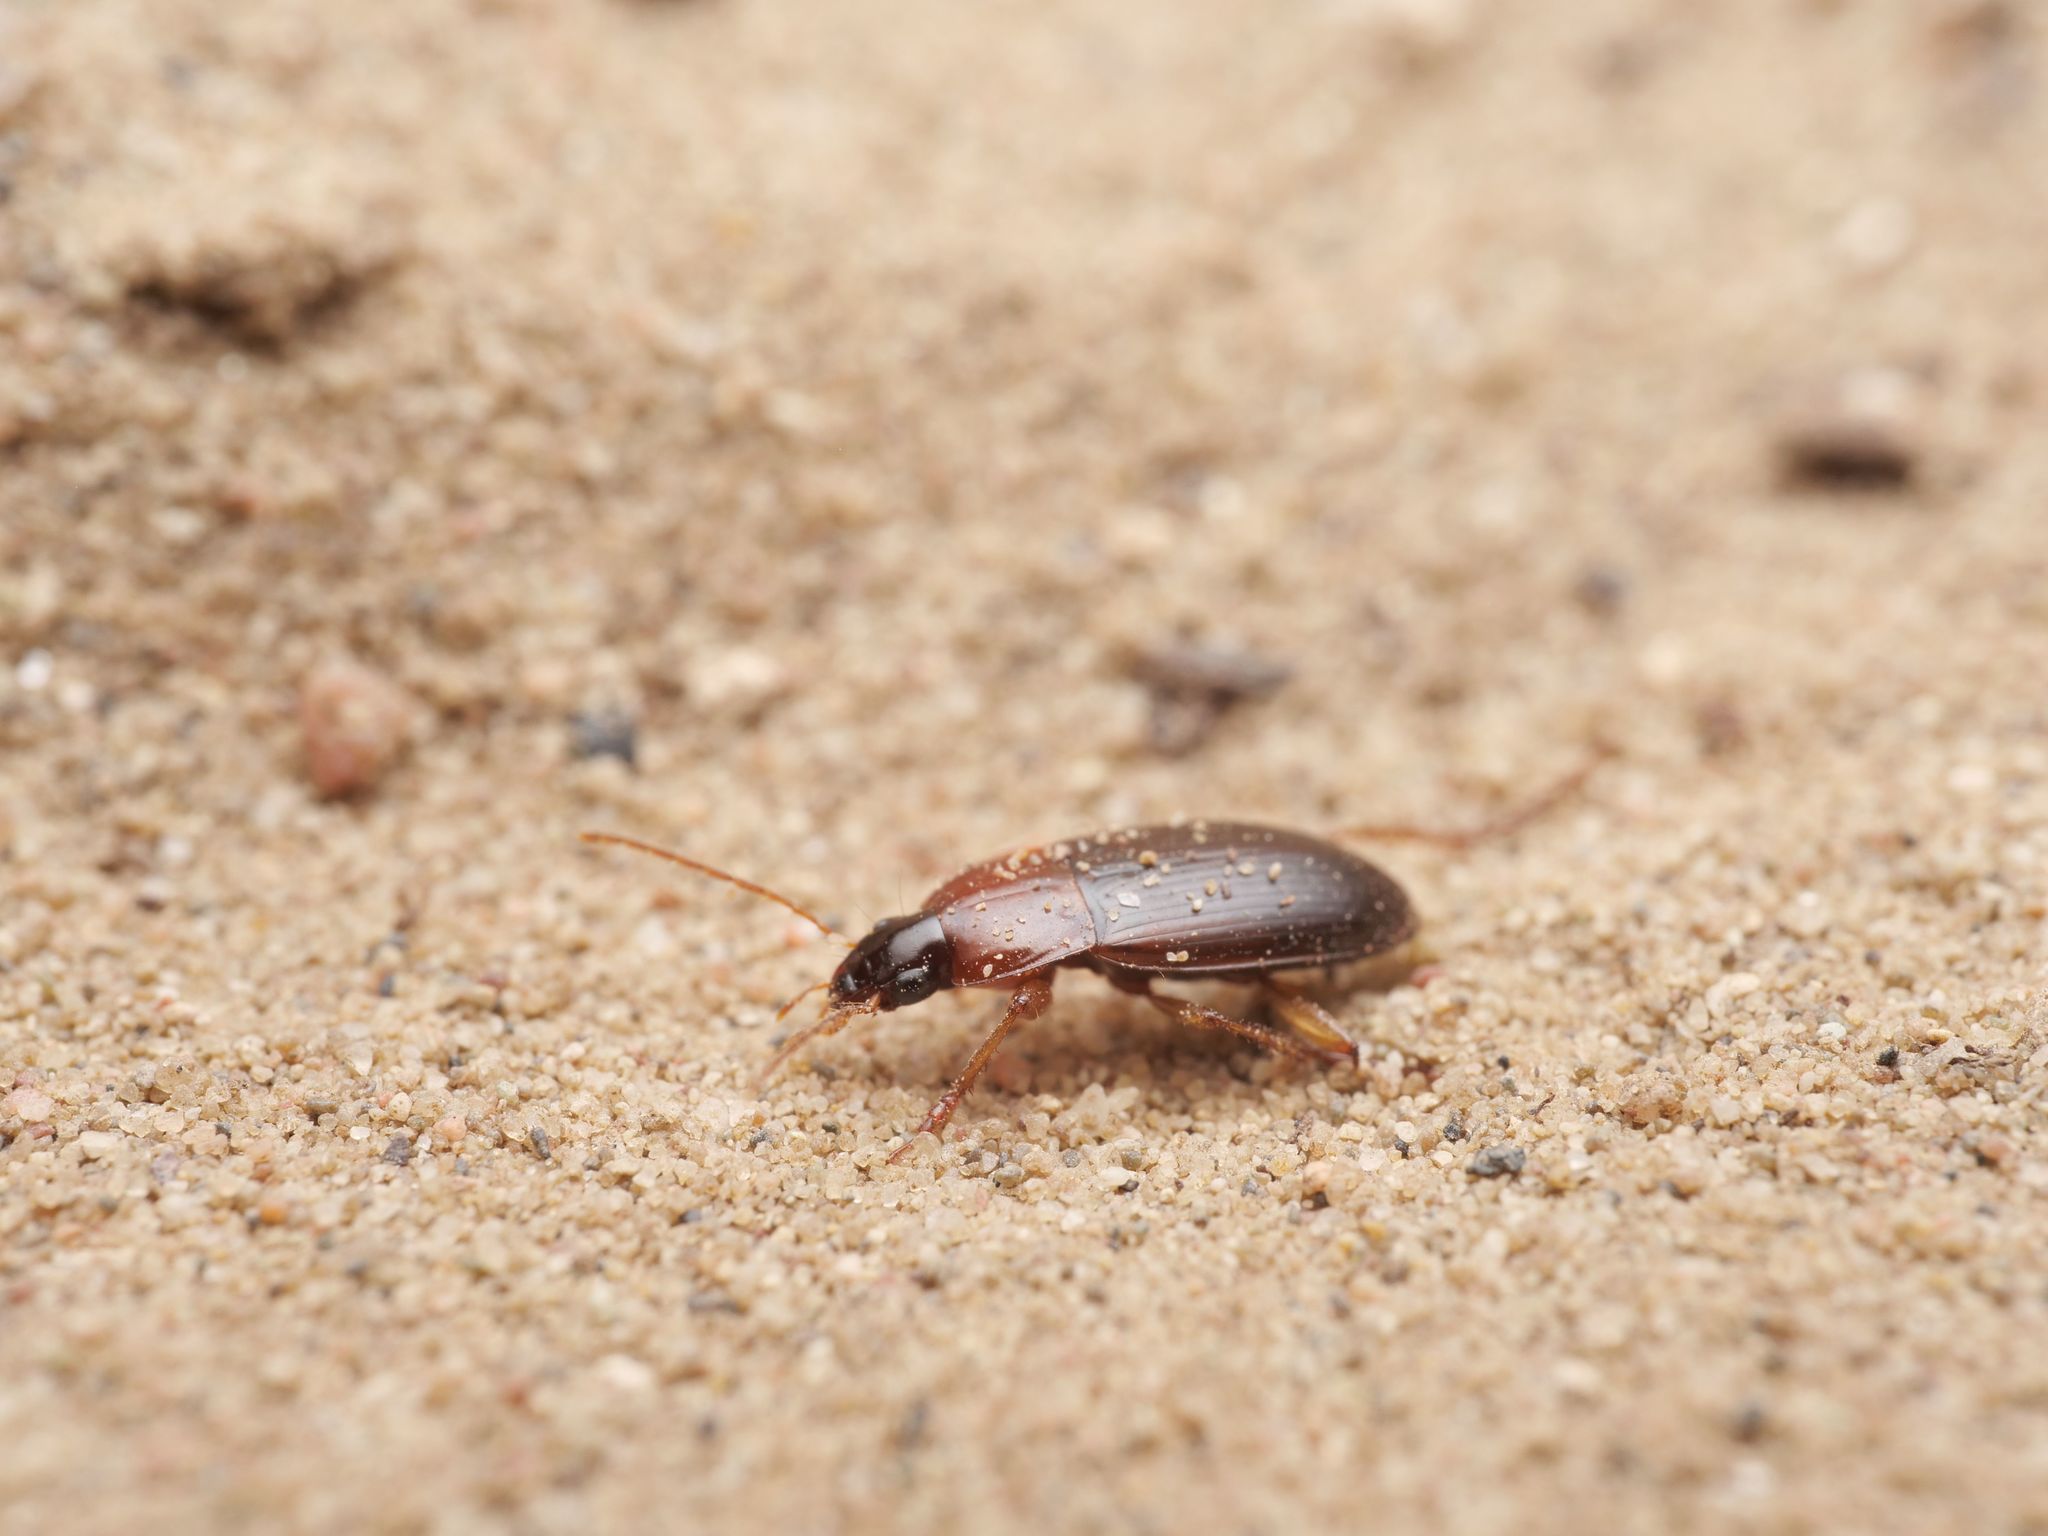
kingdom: Animalia
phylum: Arthropoda
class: Insecta
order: Coleoptera
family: Carabidae
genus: Calathus
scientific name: Calathus cinctus
